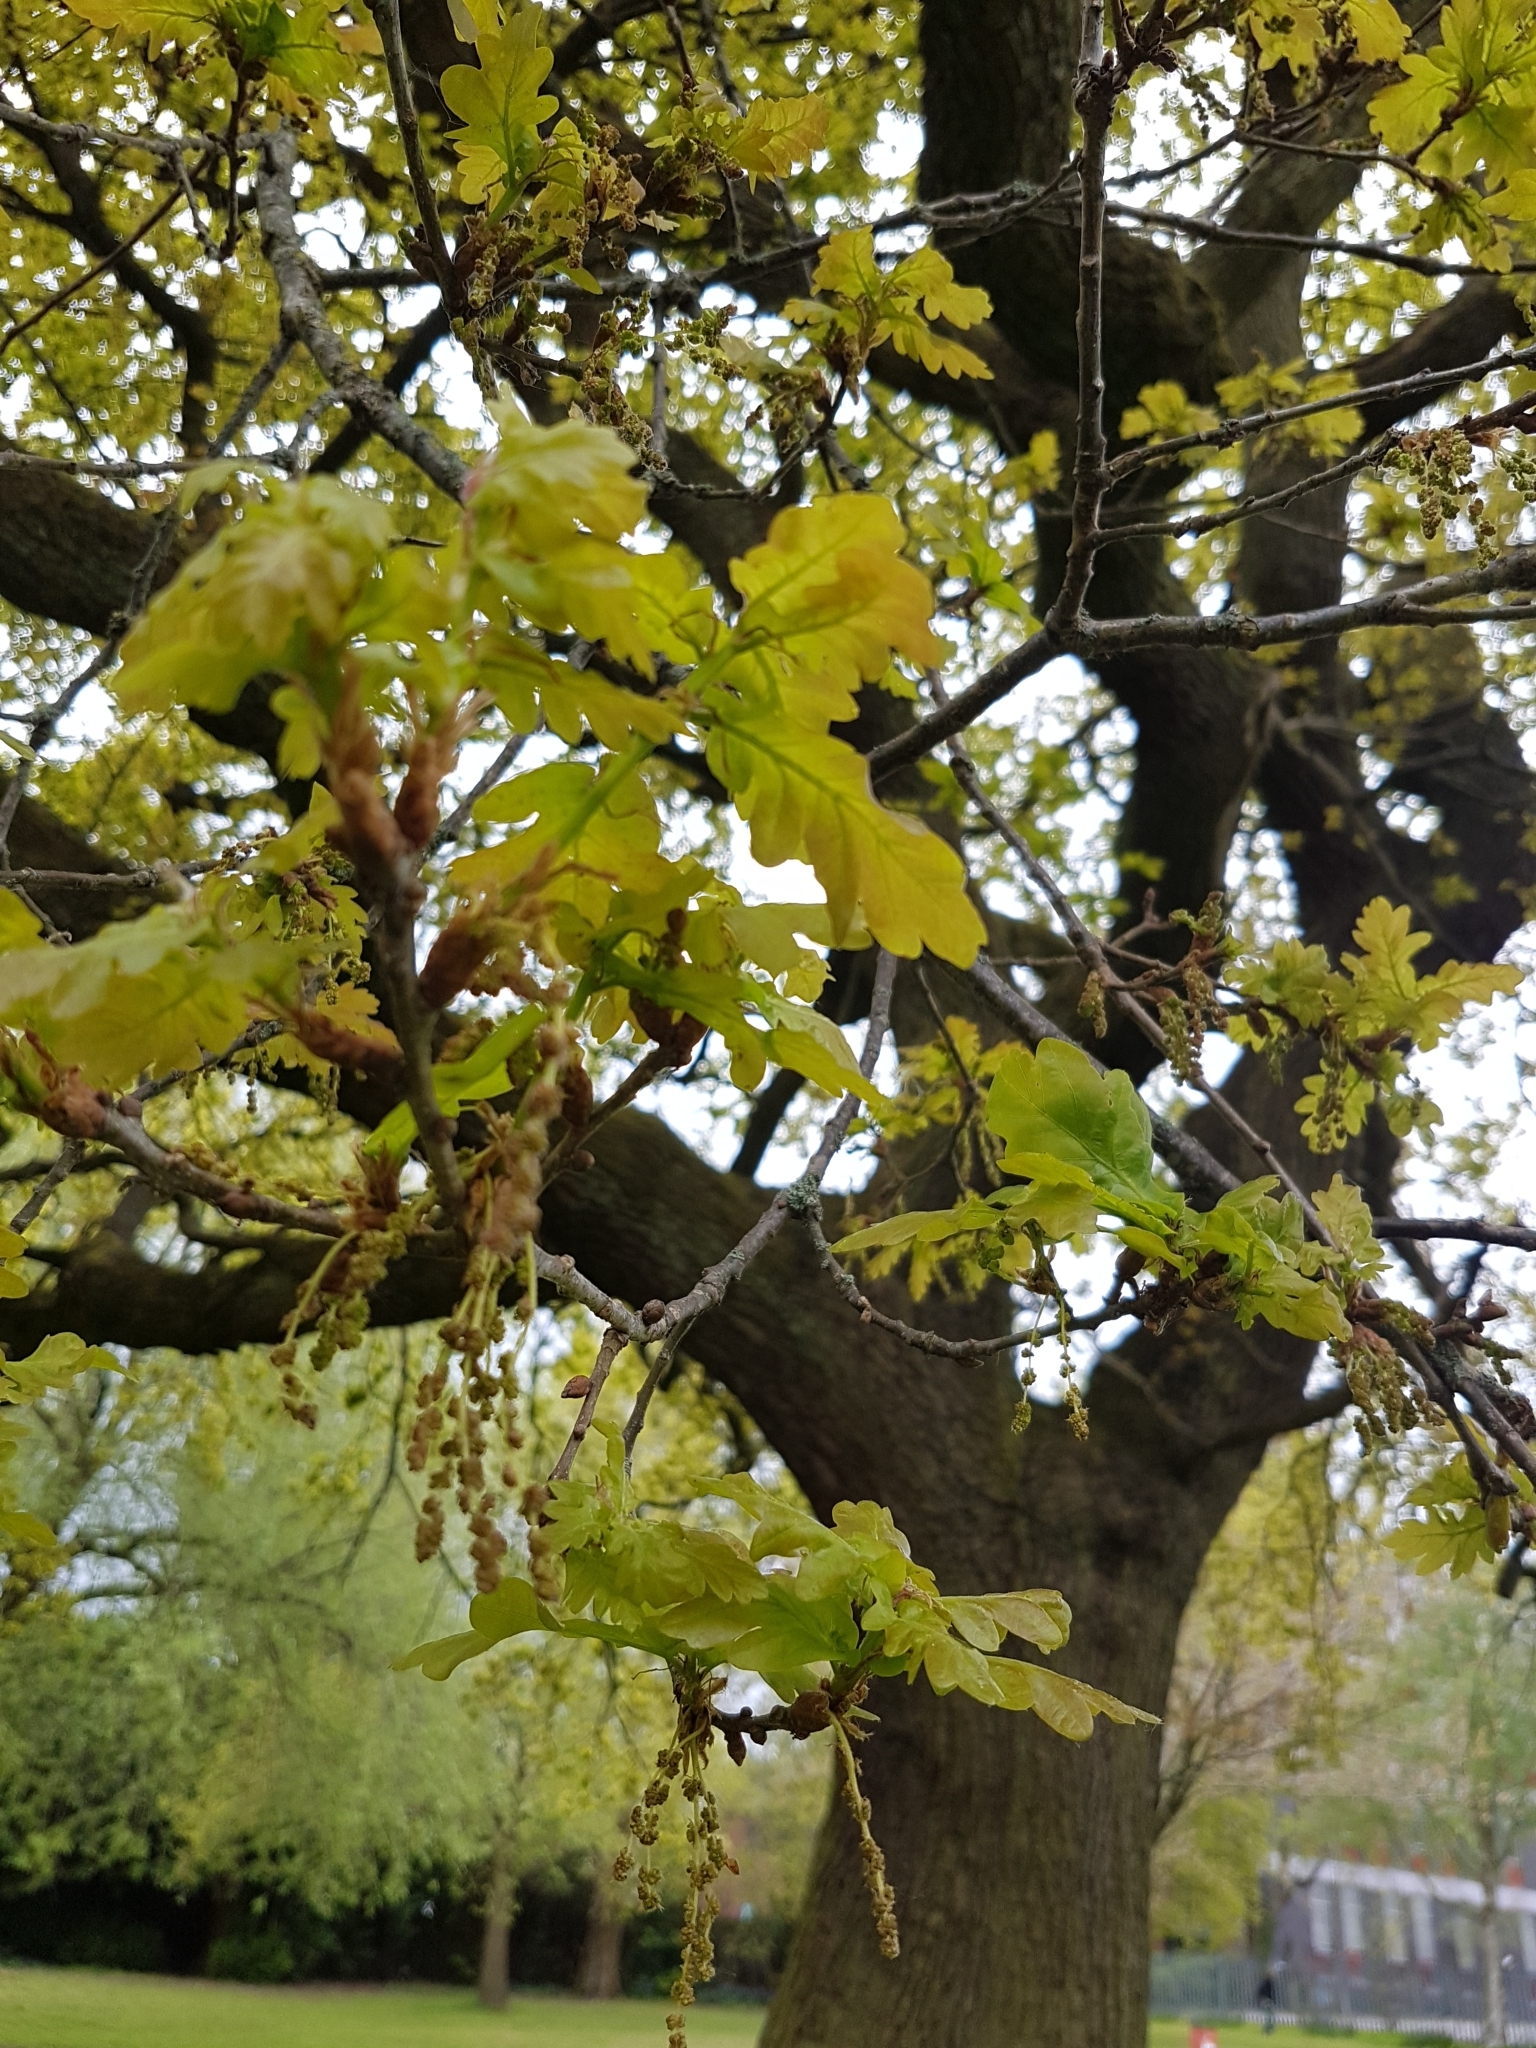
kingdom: Plantae
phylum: Tracheophyta
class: Magnoliopsida
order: Fagales
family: Fagaceae
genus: Quercus
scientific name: Quercus robur
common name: Pedunculate oak
